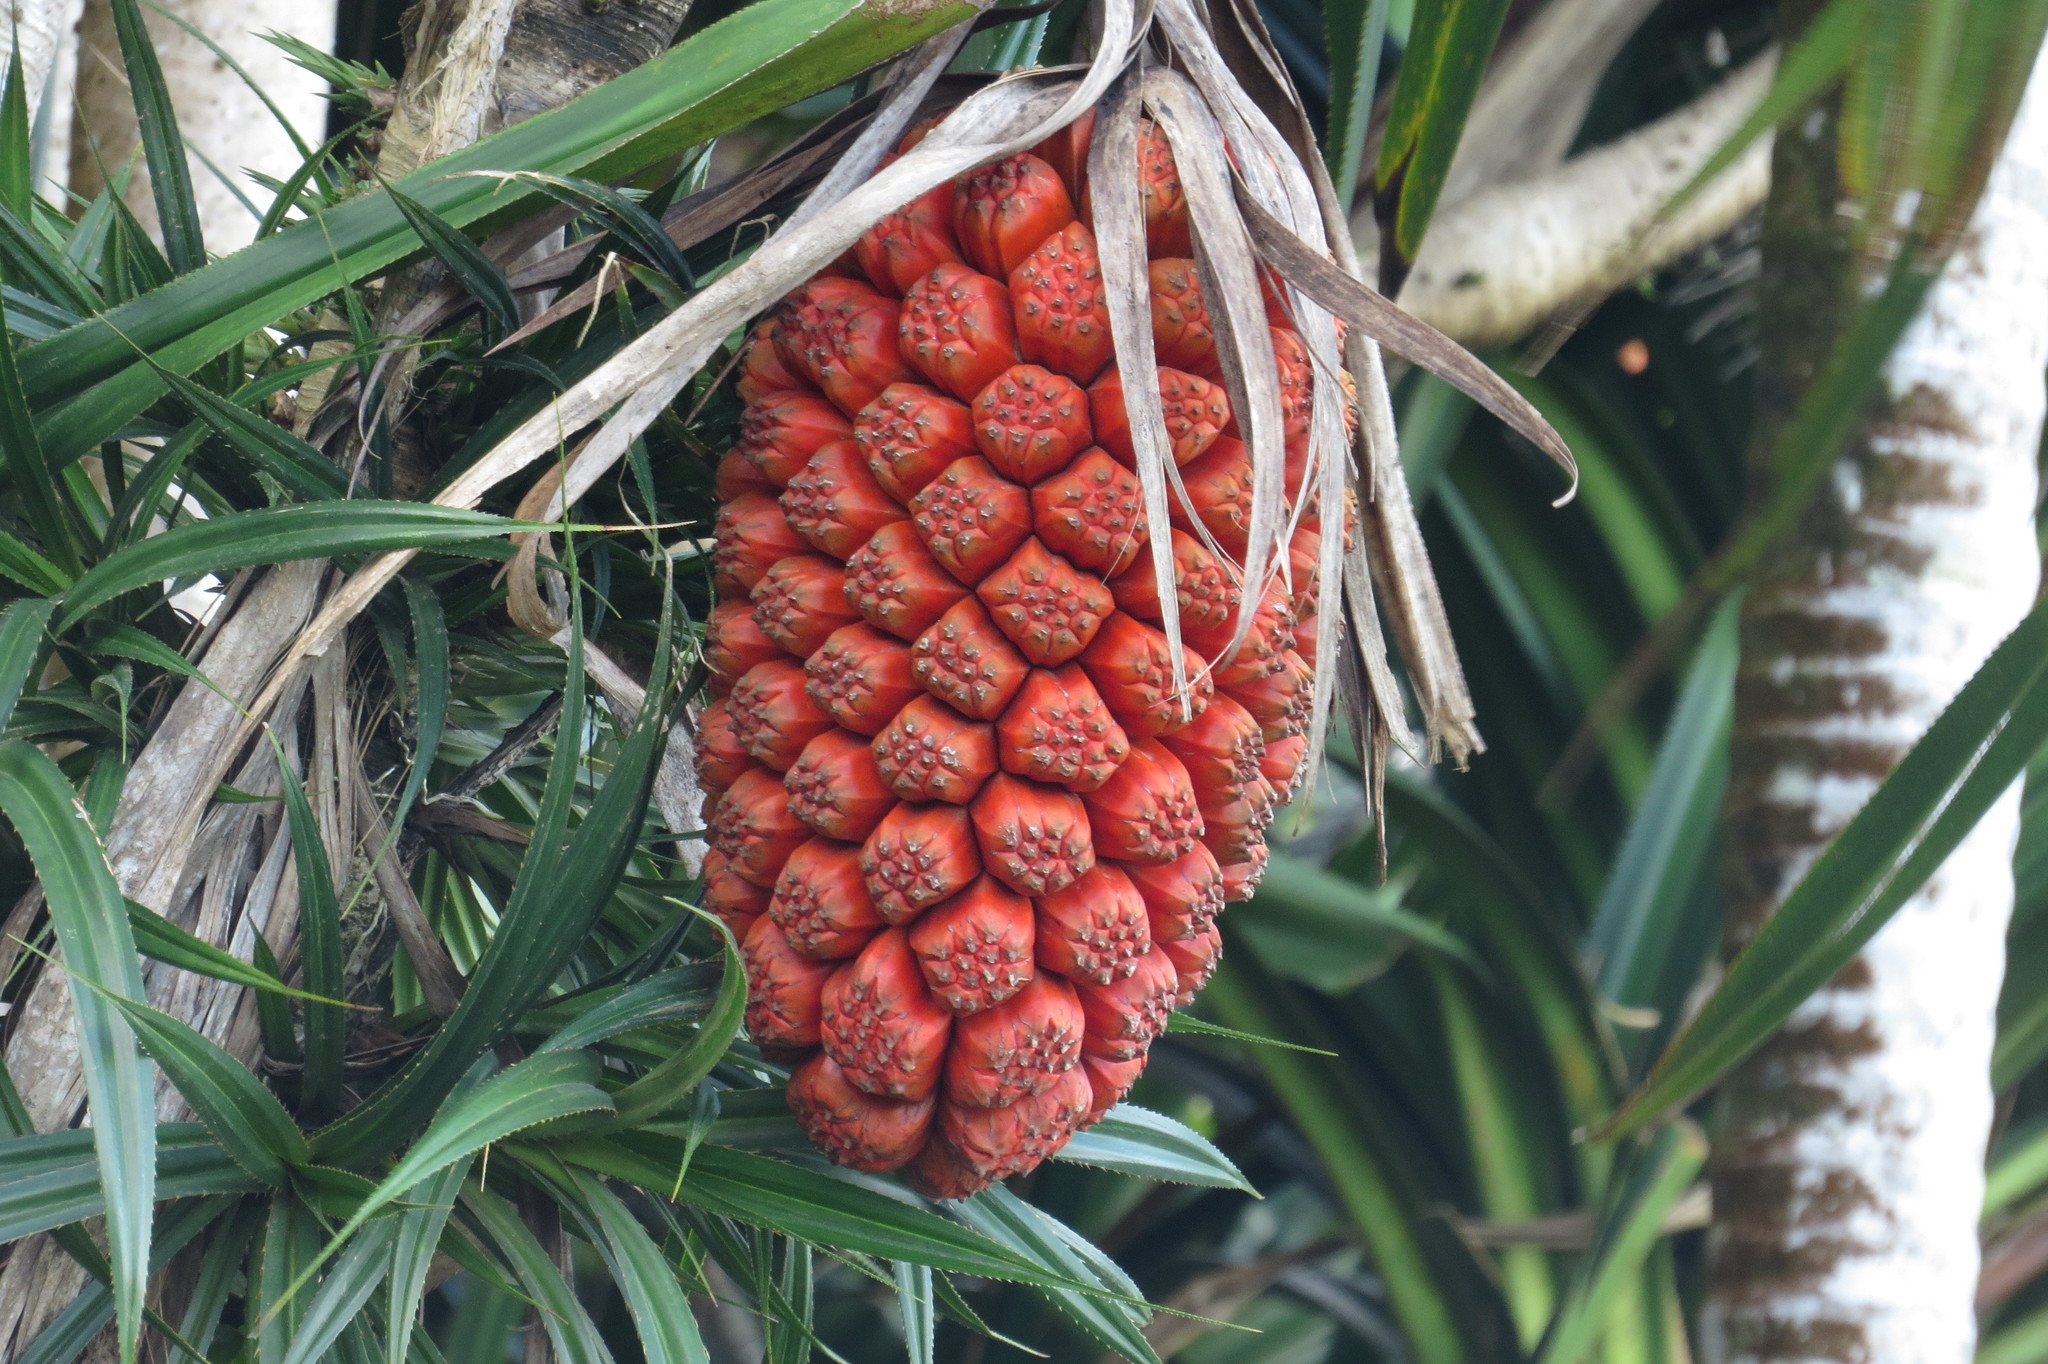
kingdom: Plantae
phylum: Tracheophyta
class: Liliopsida
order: Pandanales
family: Pandanaceae
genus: Pandanus
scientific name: Pandanus grayorum
